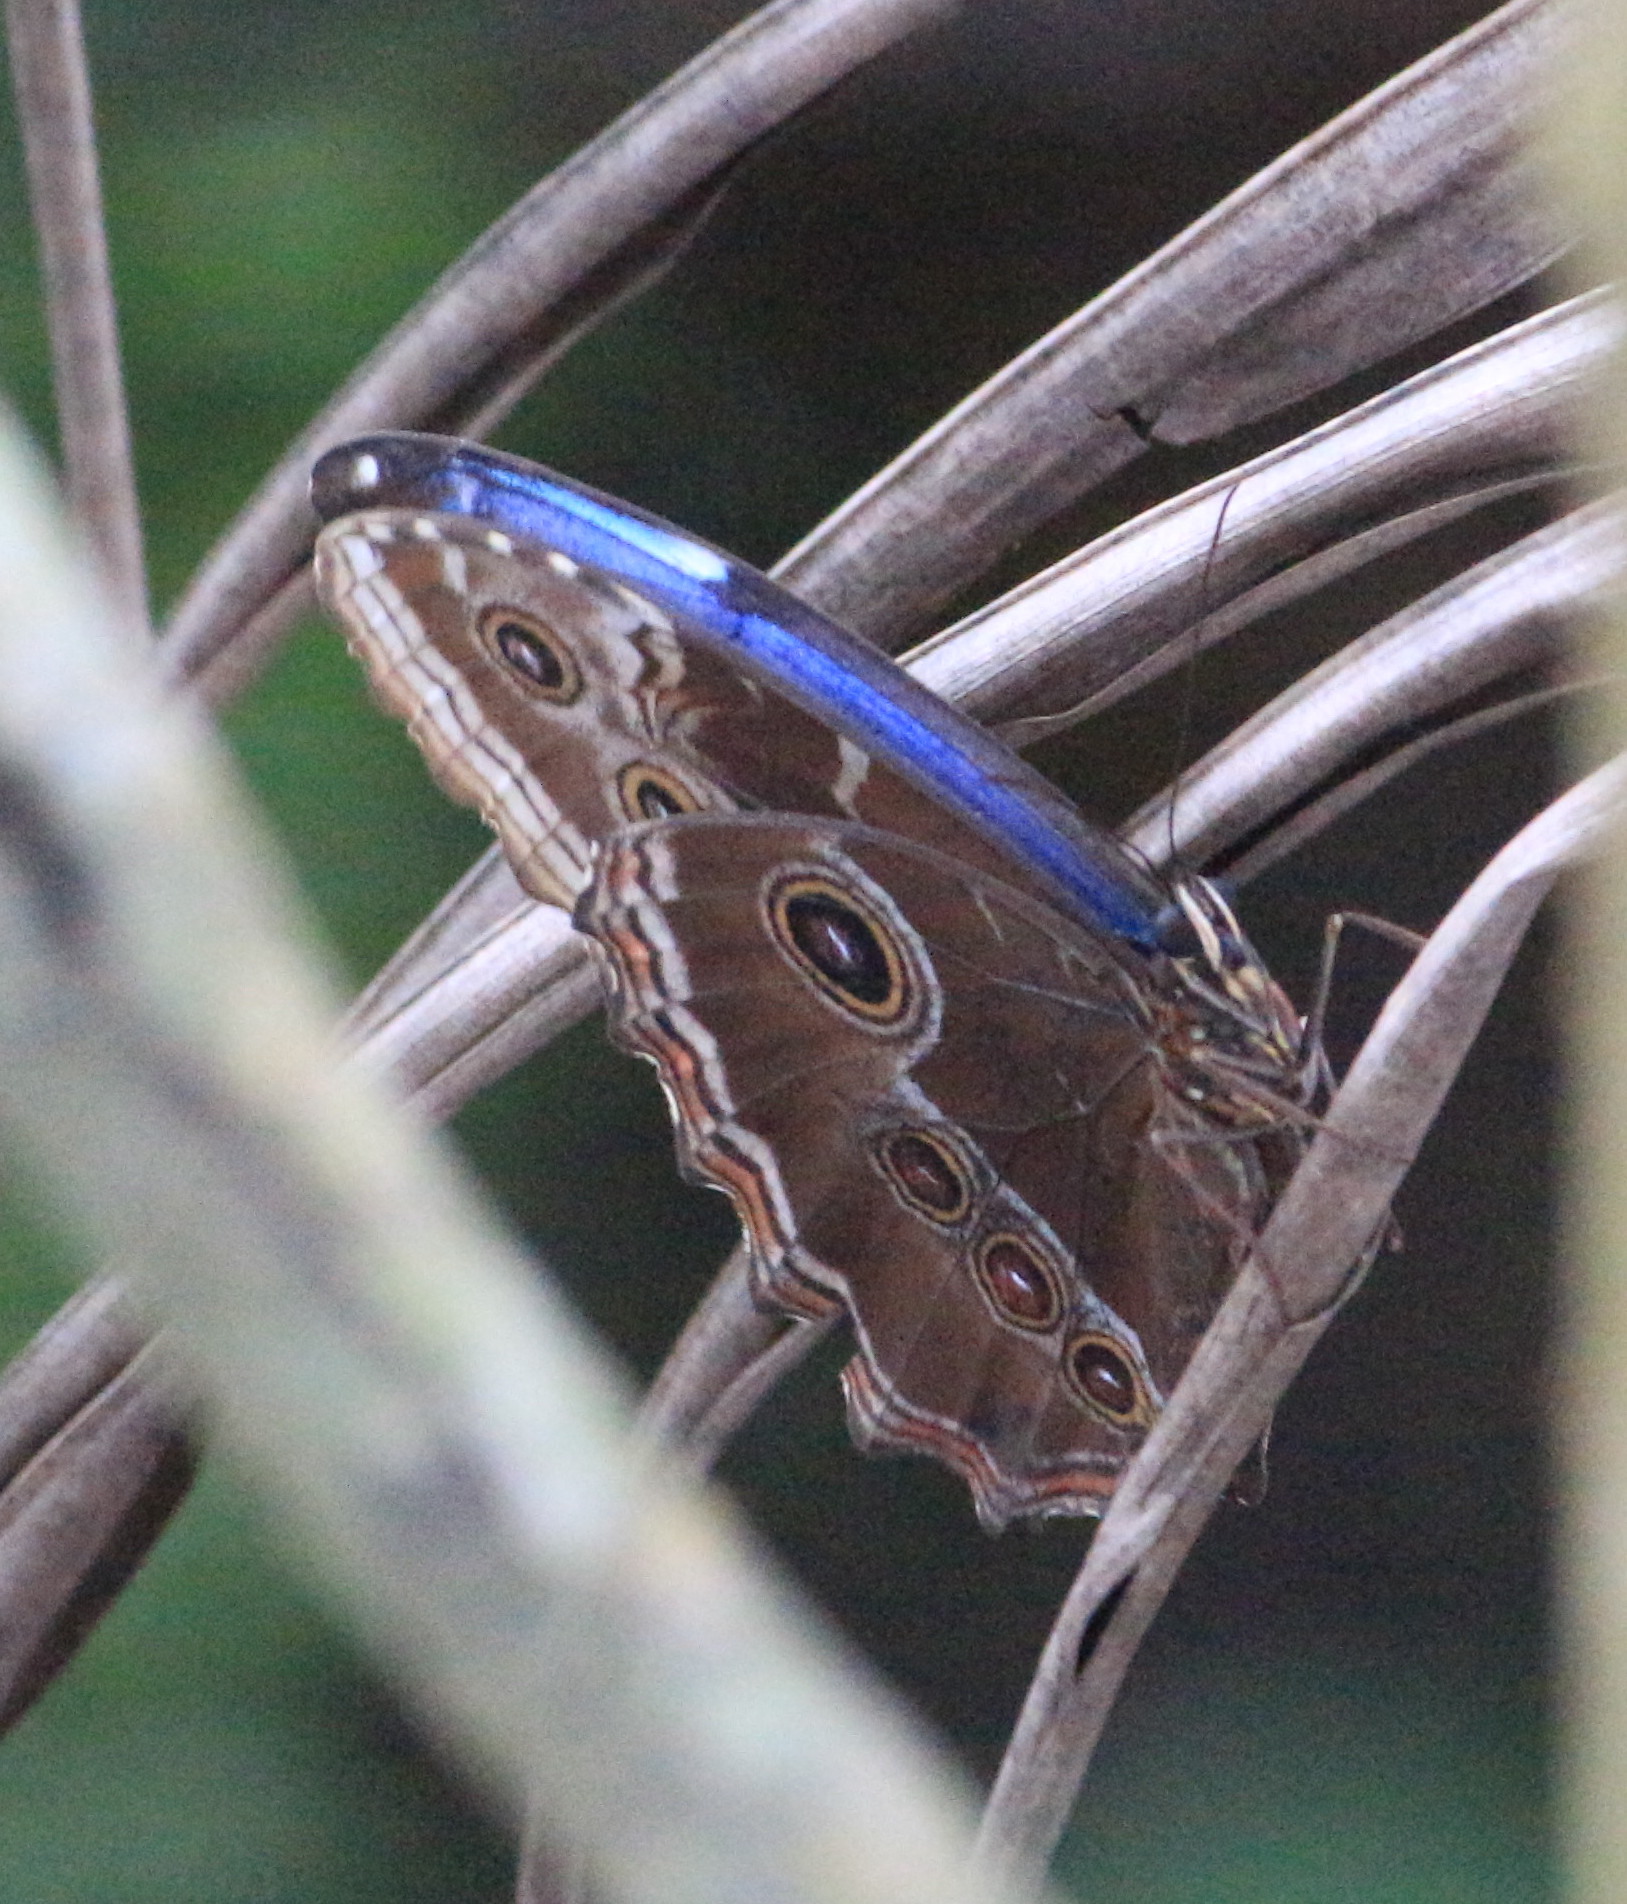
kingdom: Animalia
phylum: Arthropoda
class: Insecta
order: Lepidoptera
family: Nymphalidae
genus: Morpho
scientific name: Morpho helenor
